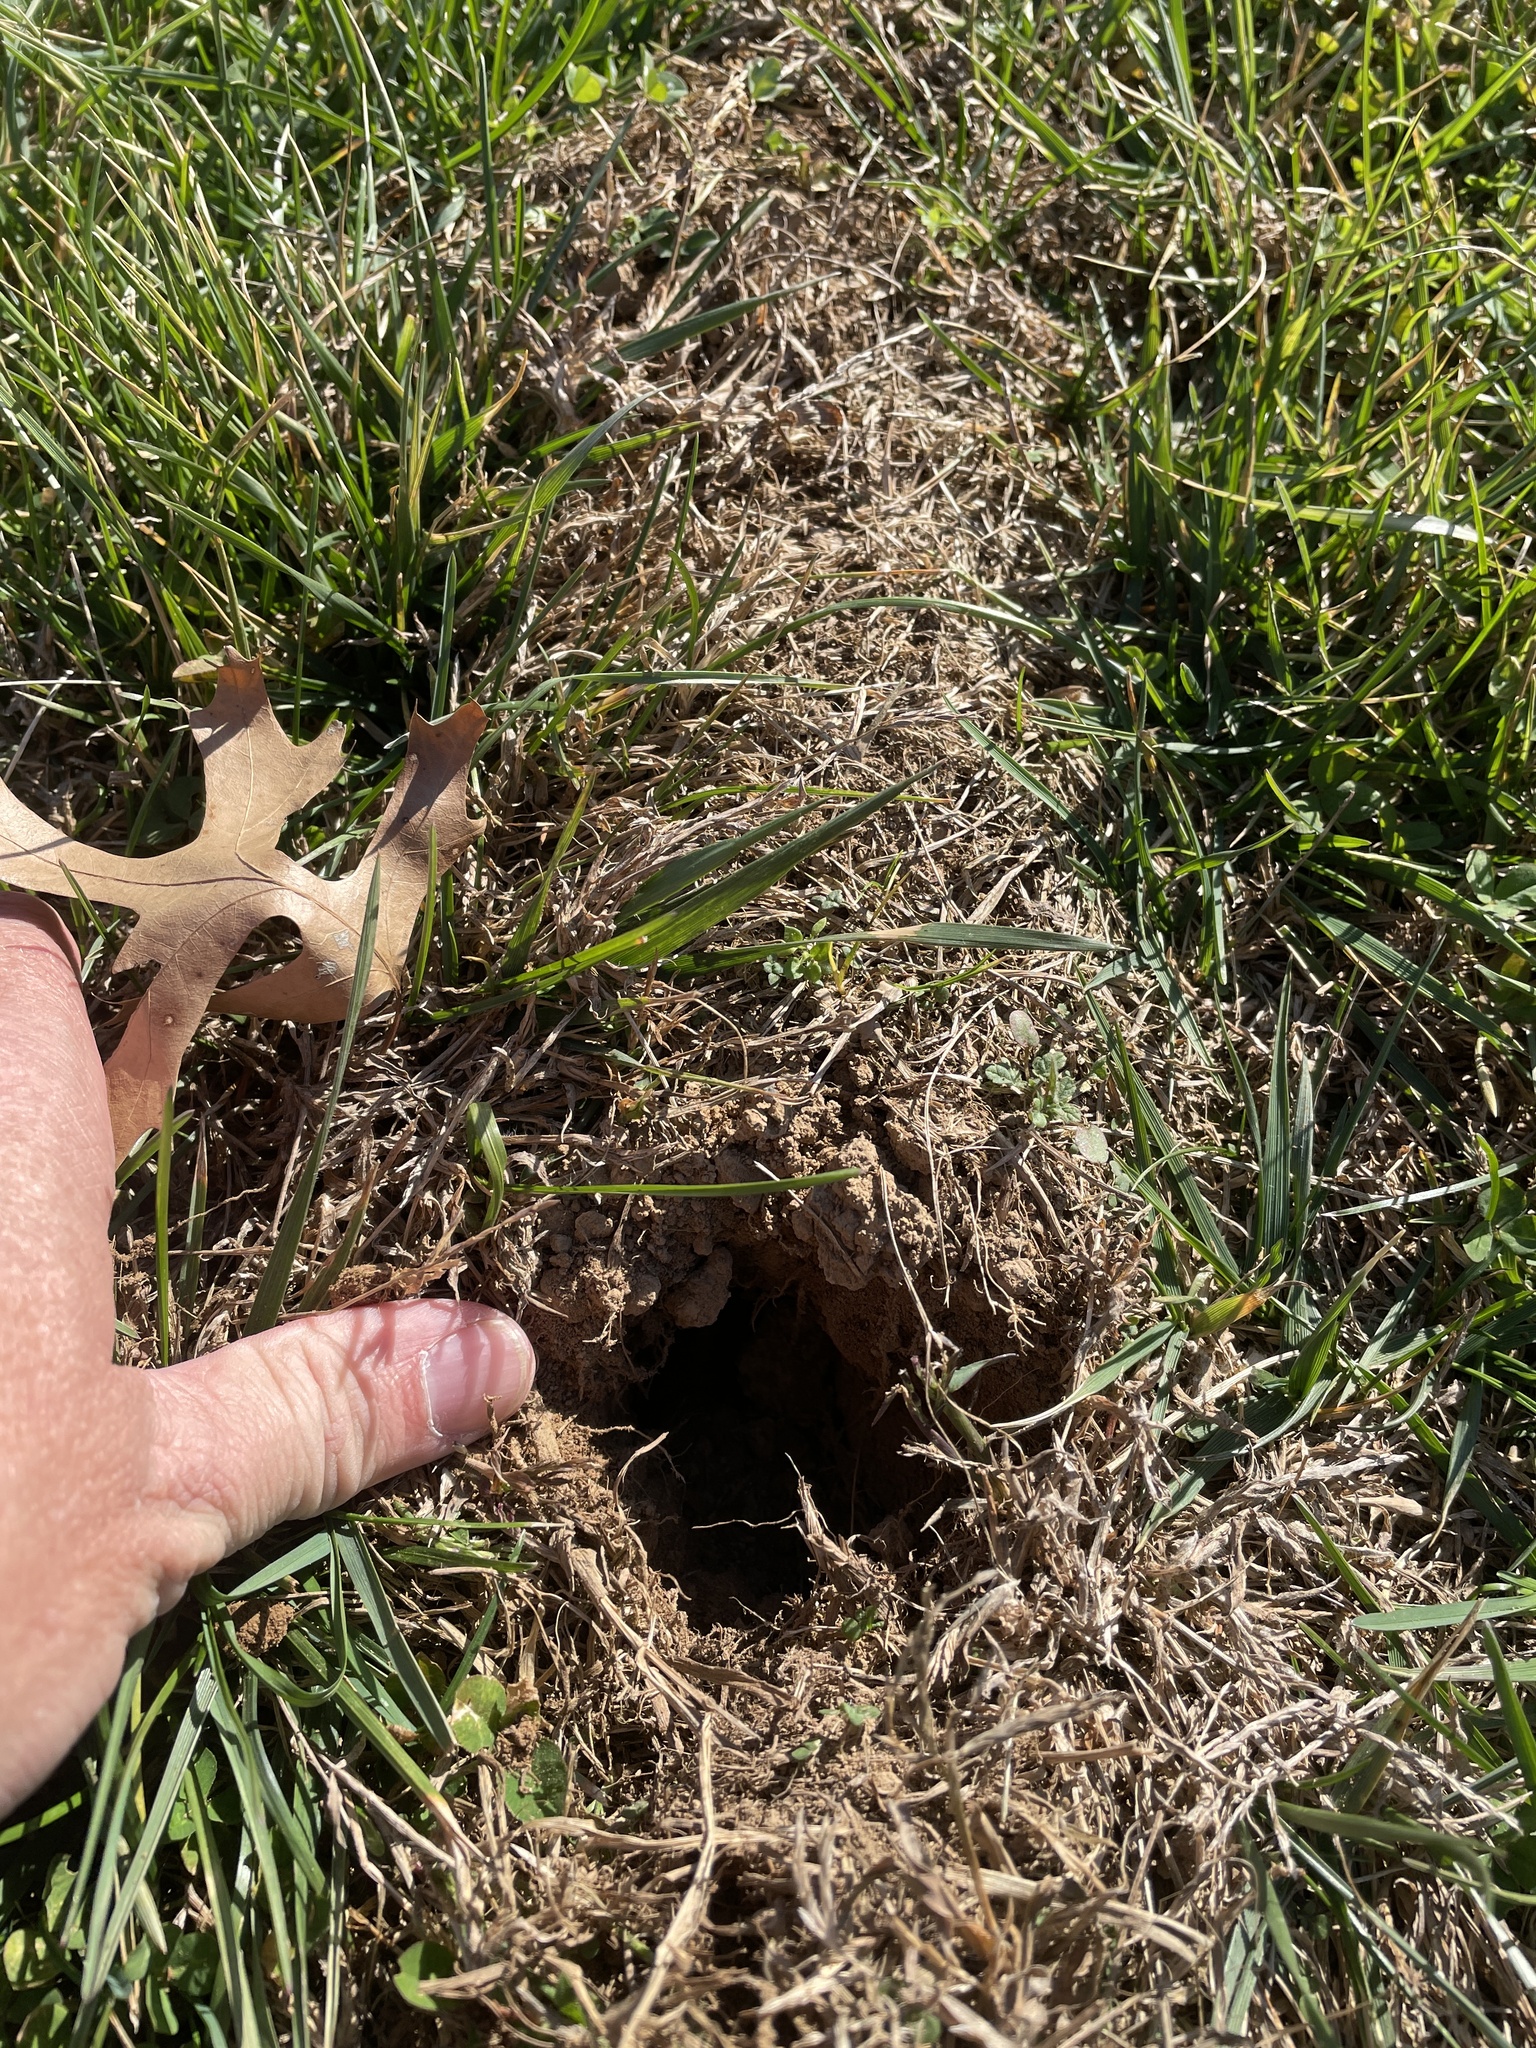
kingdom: Animalia
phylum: Chordata
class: Mammalia
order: Soricomorpha
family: Talpidae
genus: Scalopus
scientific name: Scalopus aquaticus
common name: Eastern mole
